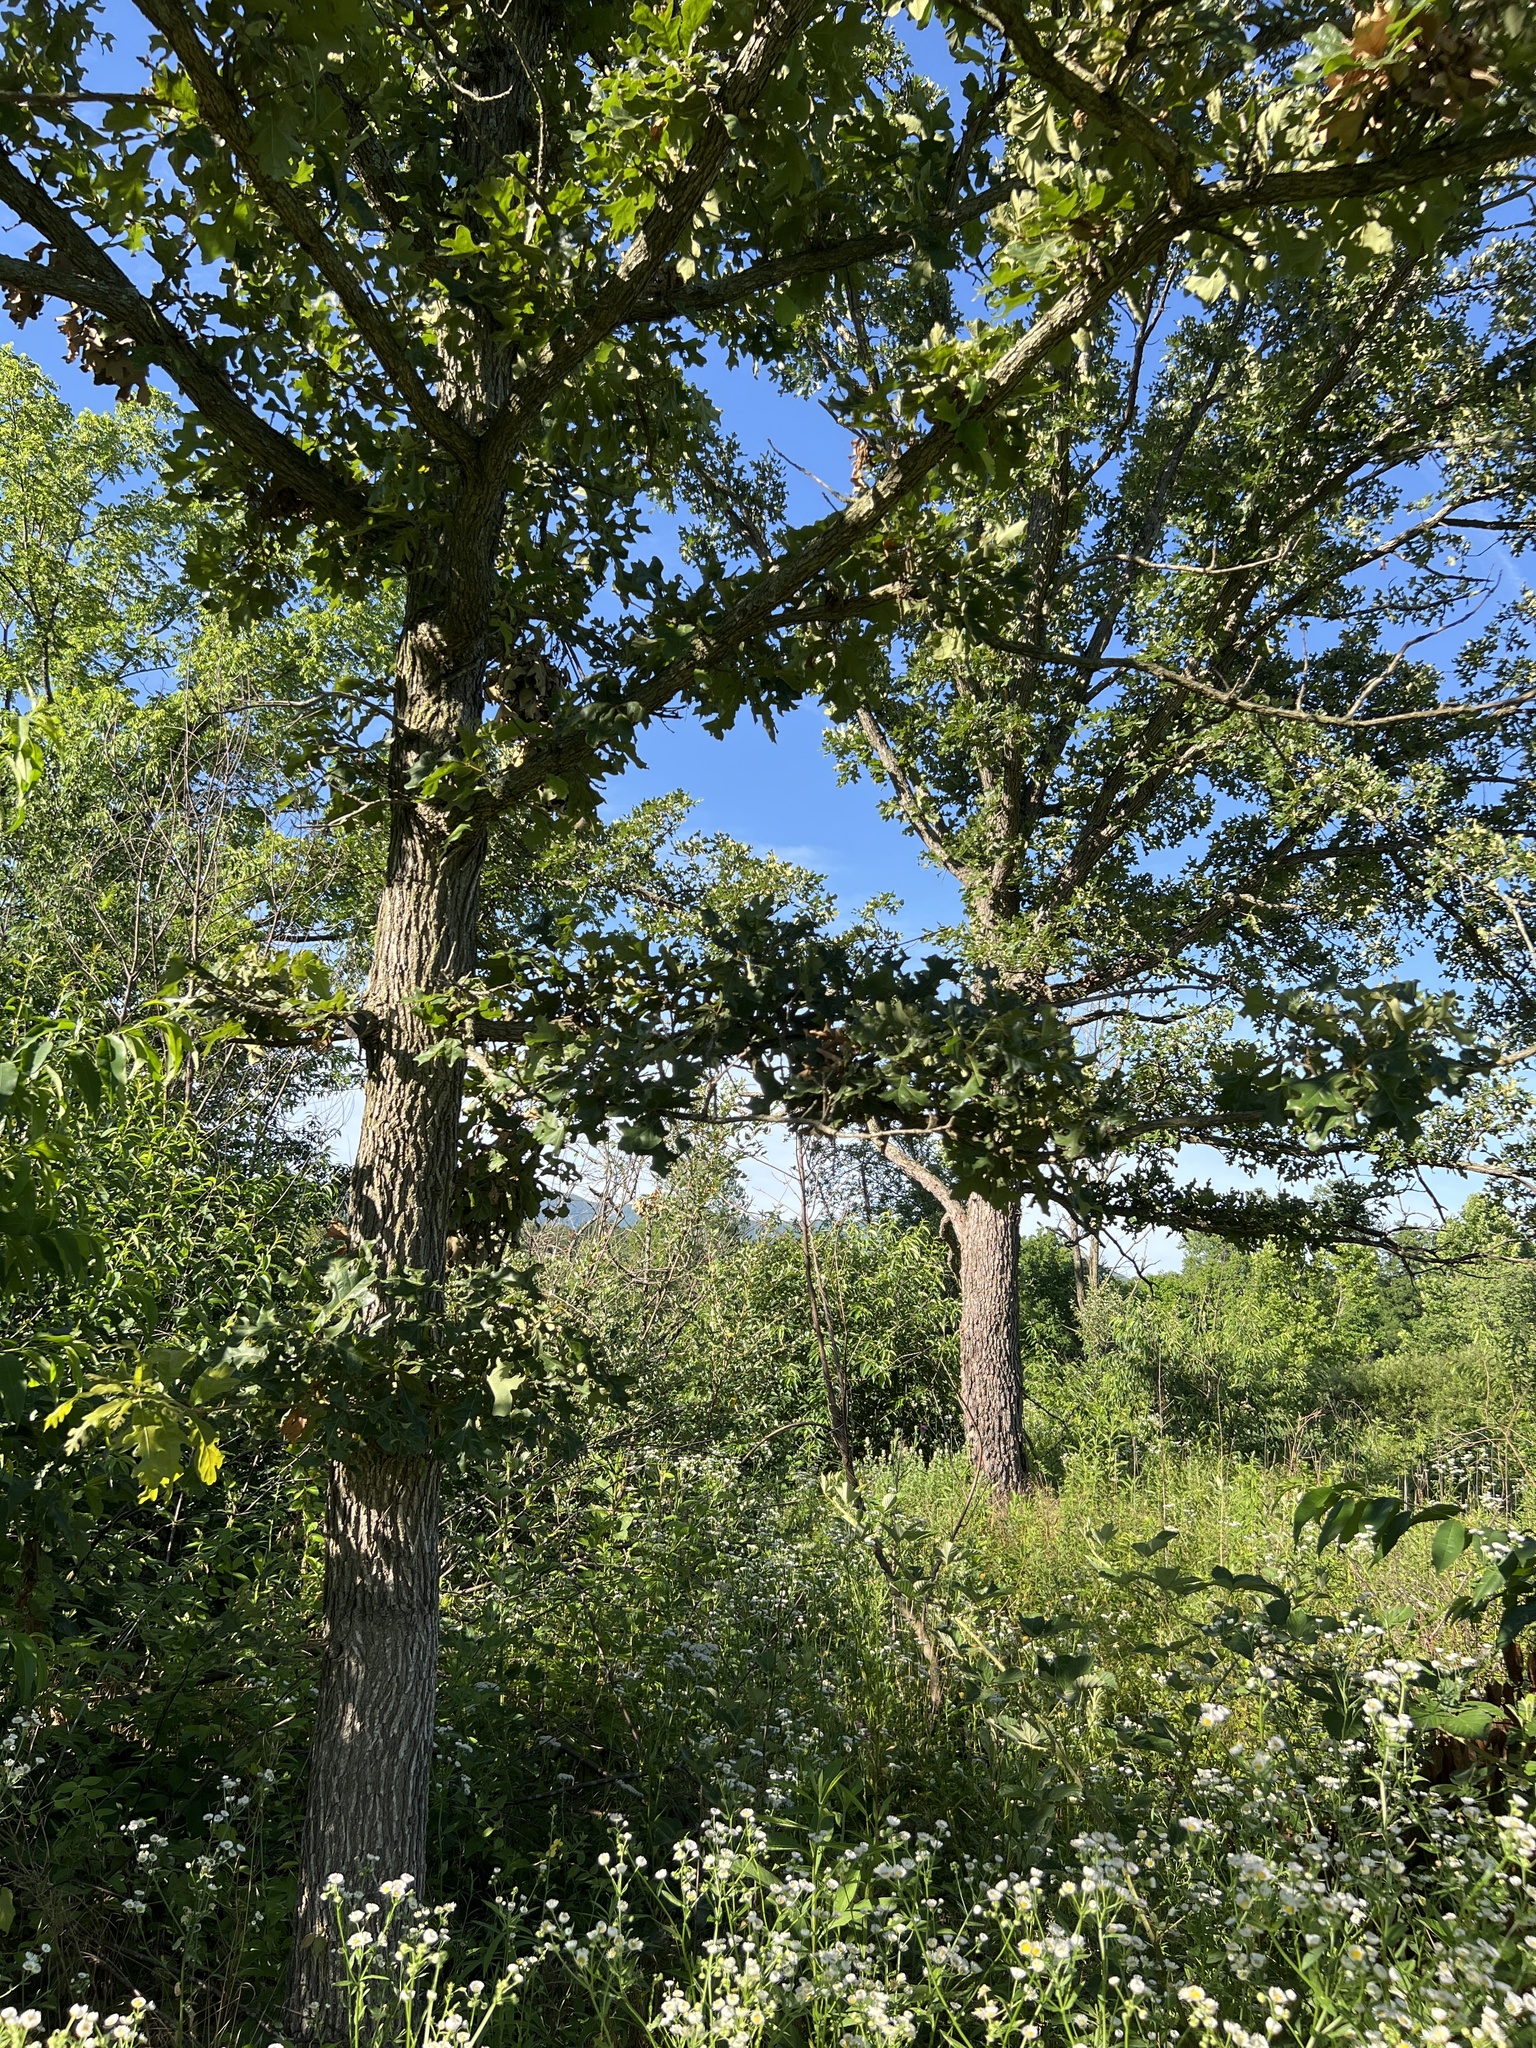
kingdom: Plantae
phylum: Tracheophyta
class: Magnoliopsida
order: Fagales
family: Fagaceae
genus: Quercus
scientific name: Quercus stellata
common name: Post oak
